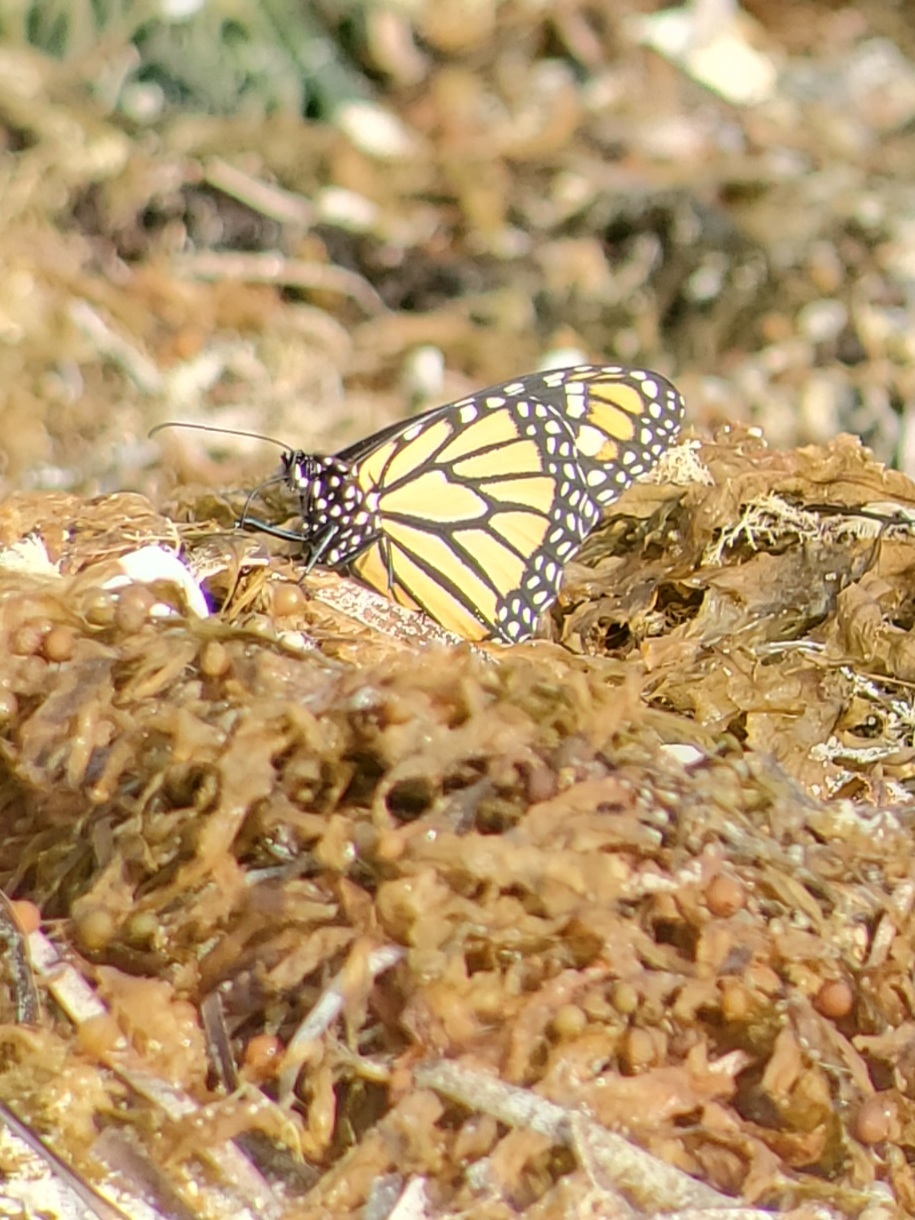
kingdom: Animalia
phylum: Arthropoda
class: Insecta
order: Lepidoptera
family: Nymphalidae
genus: Danaus
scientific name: Danaus plexippus
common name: Monarch
